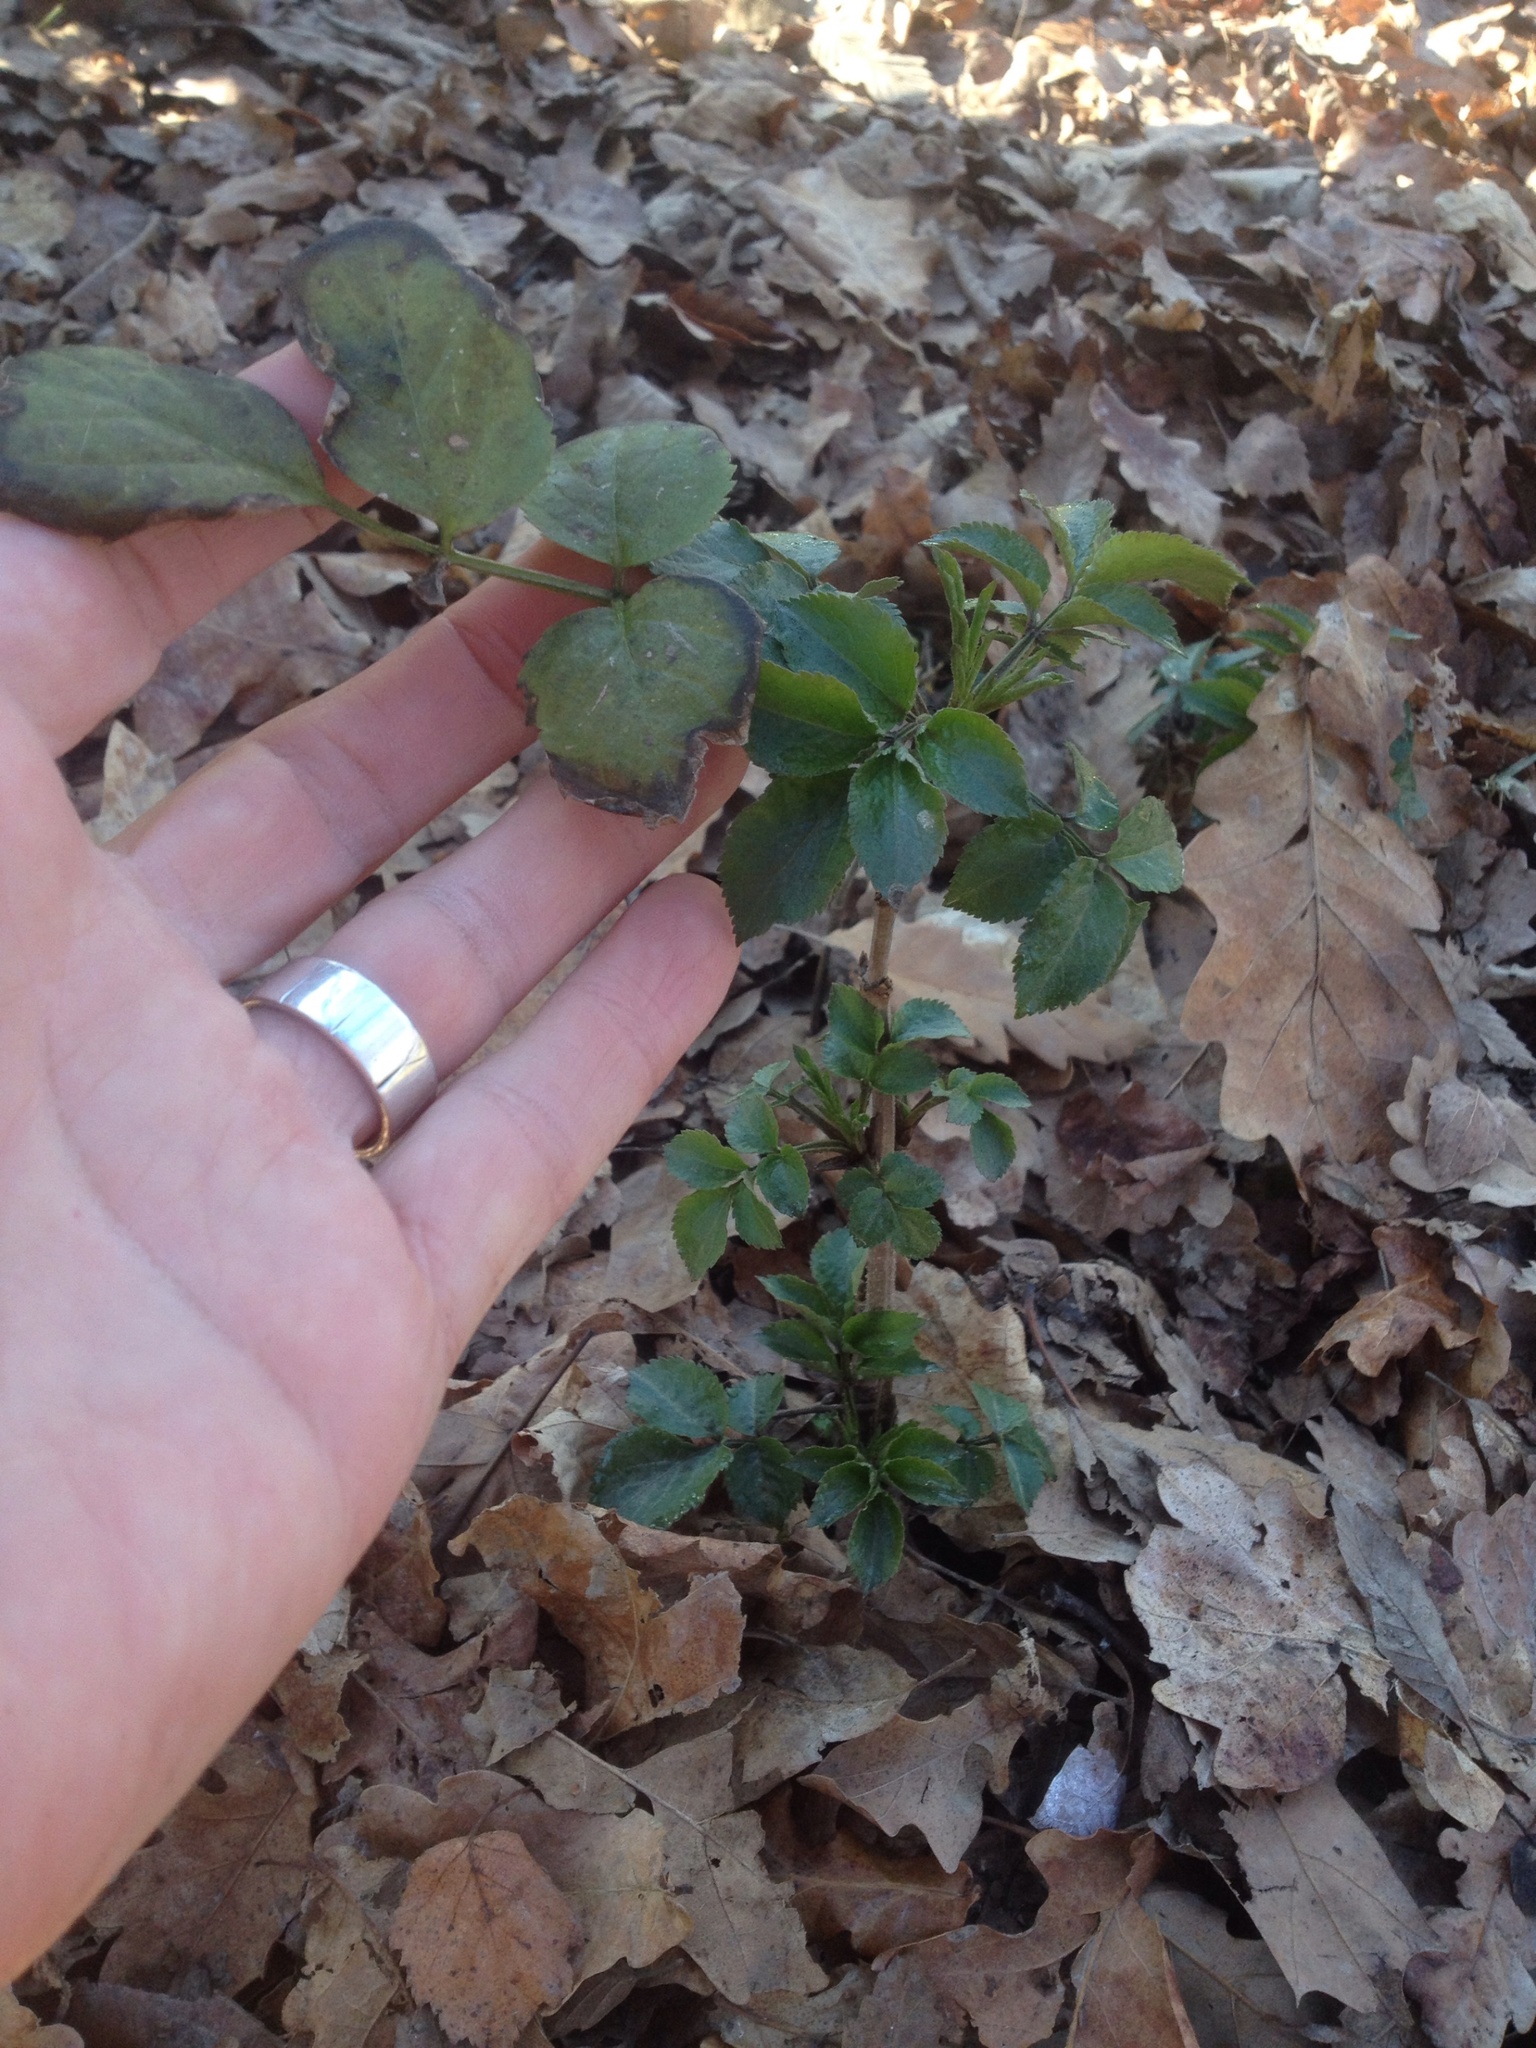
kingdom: Plantae
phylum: Tracheophyta
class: Magnoliopsida
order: Dipsacales
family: Viburnaceae
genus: Sambucus
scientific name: Sambucus nigra
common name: Elder
